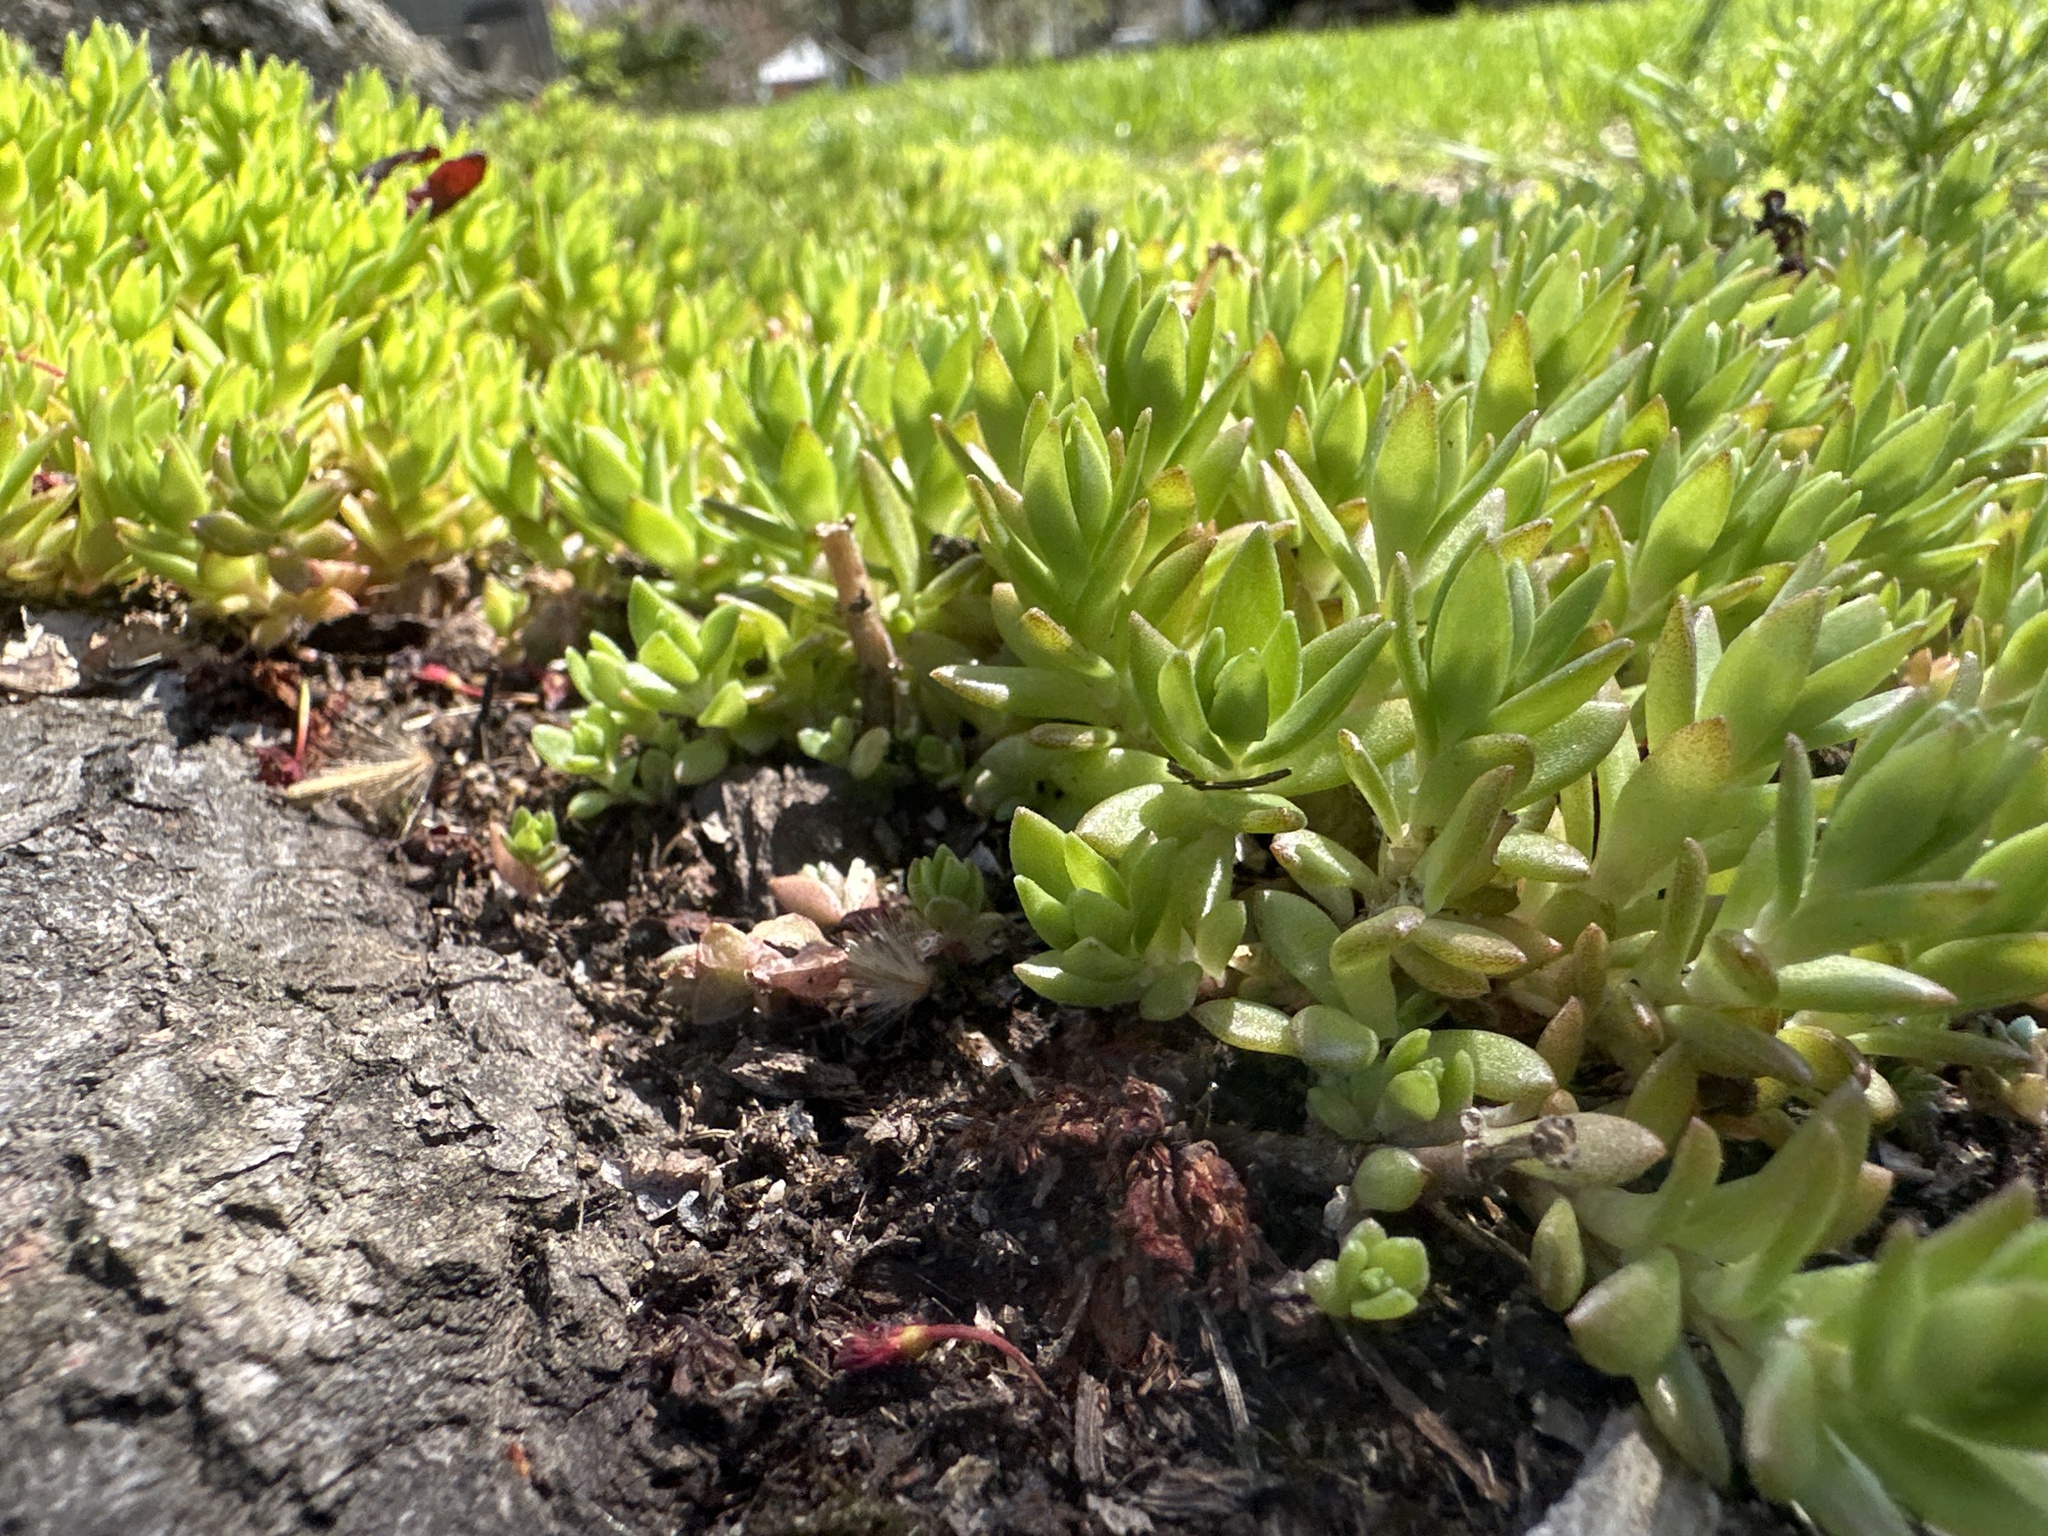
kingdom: Plantae
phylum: Tracheophyta
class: Magnoliopsida
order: Saxifragales
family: Crassulaceae
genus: Sedum
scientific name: Sedum sarmentosum
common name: Stringy stonecrop
